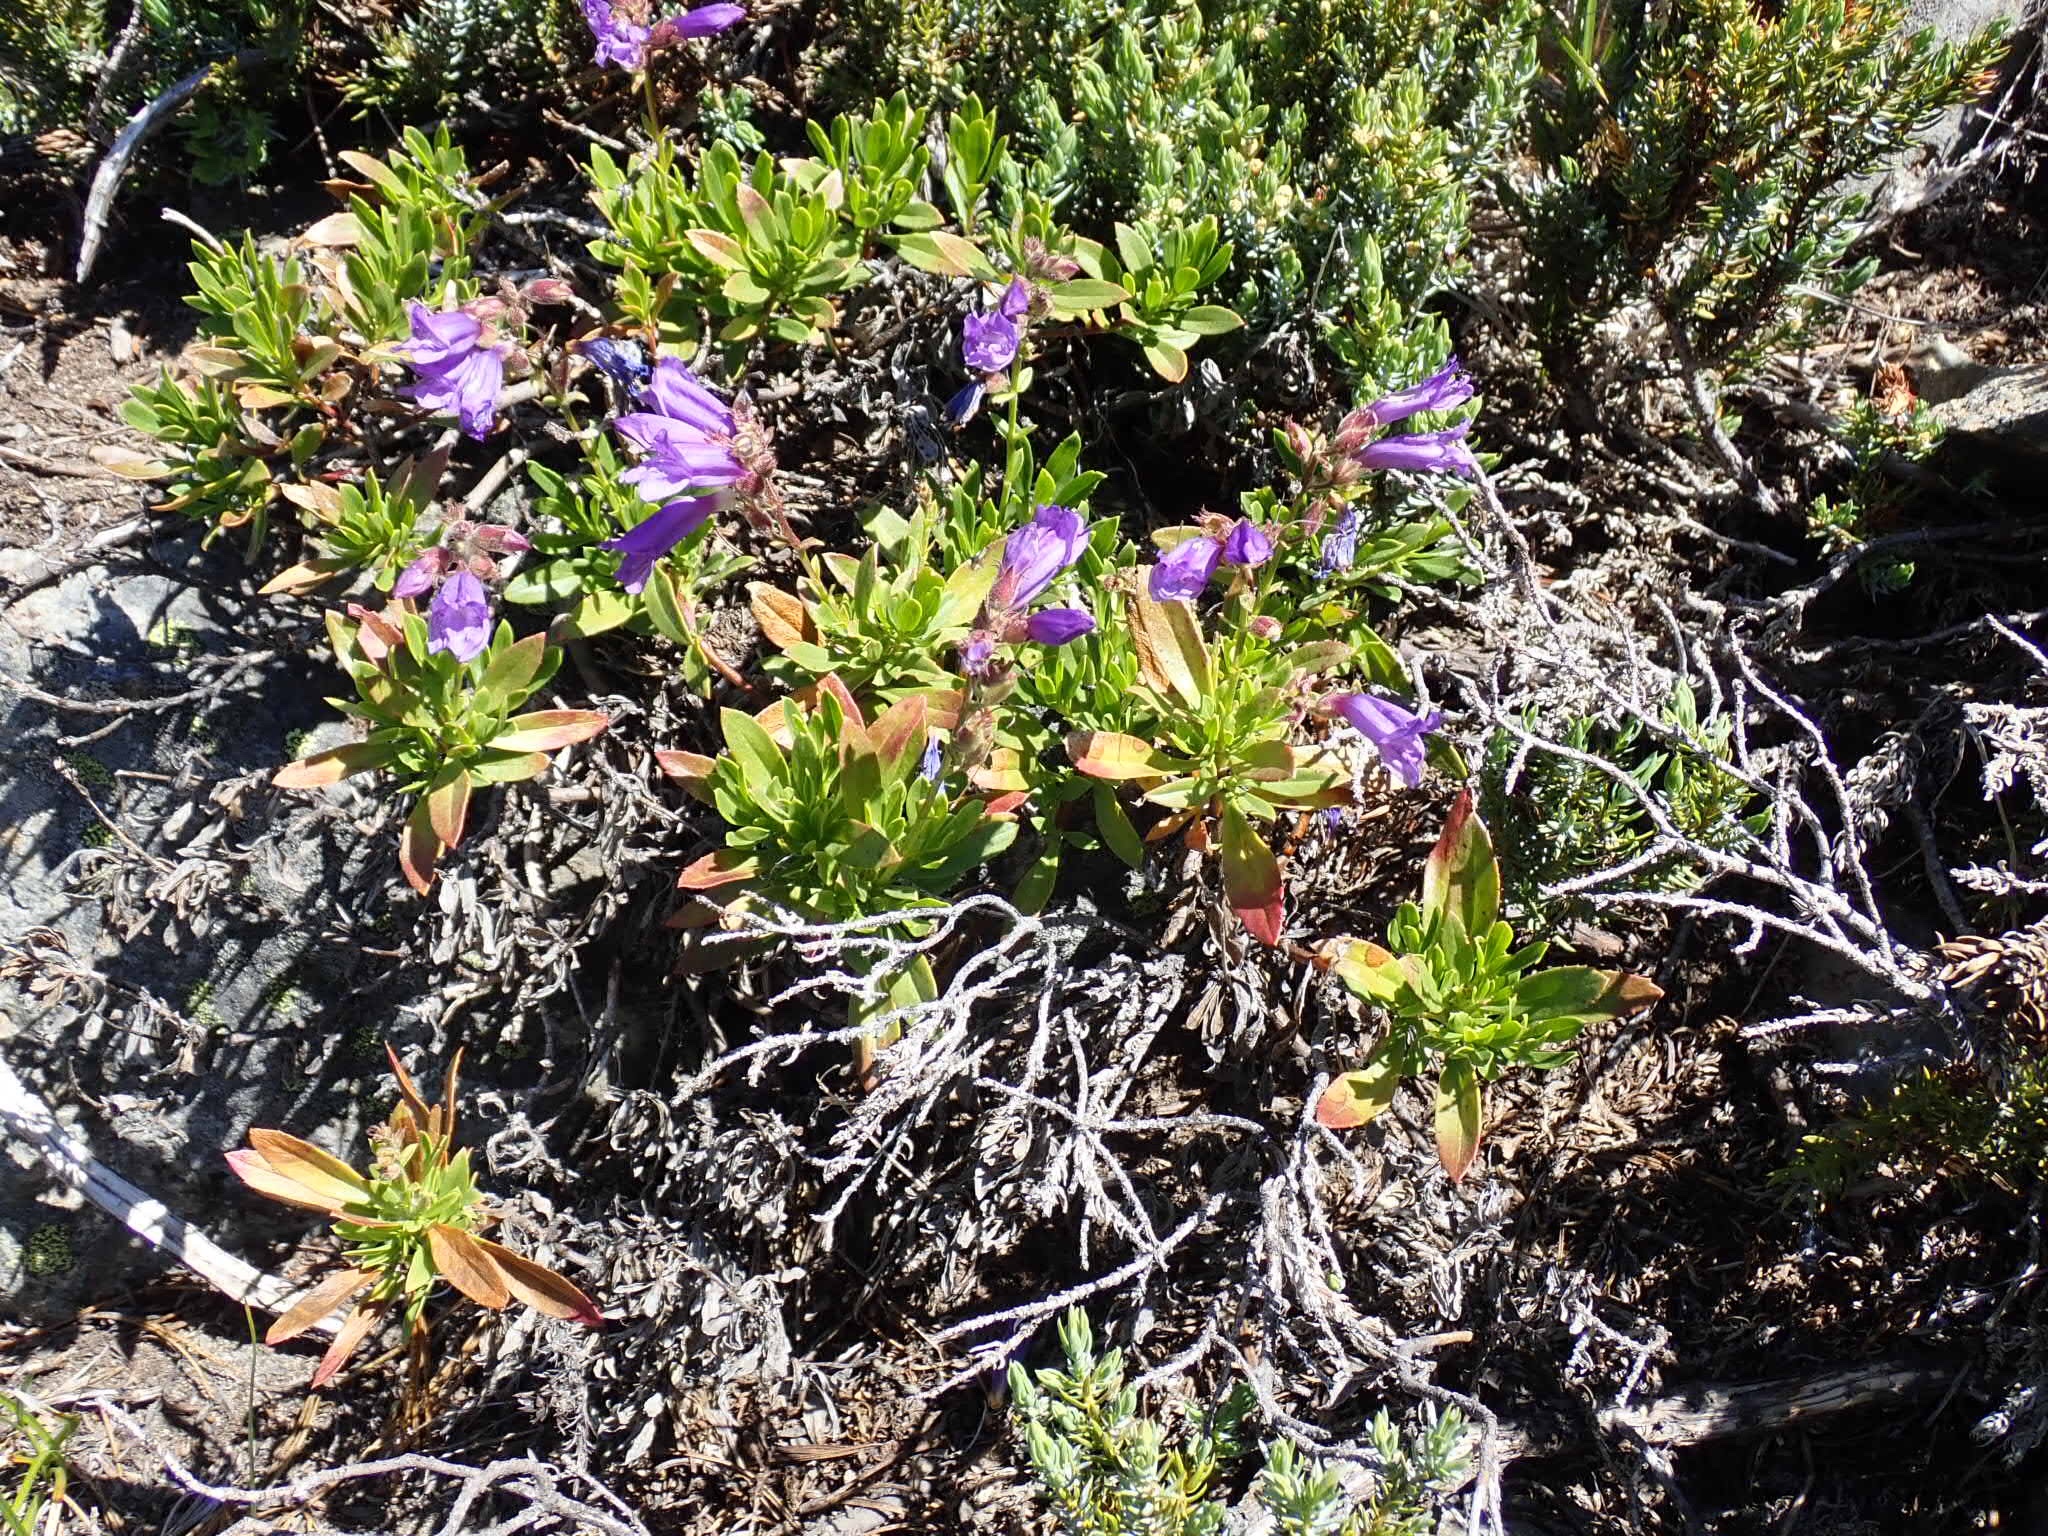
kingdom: Plantae
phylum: Tracheophyta
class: Magnoliopsida
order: Lamiales
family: Plantaginaceae
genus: Penstemon
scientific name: Penstemon fruticosus
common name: Bush penstemon
